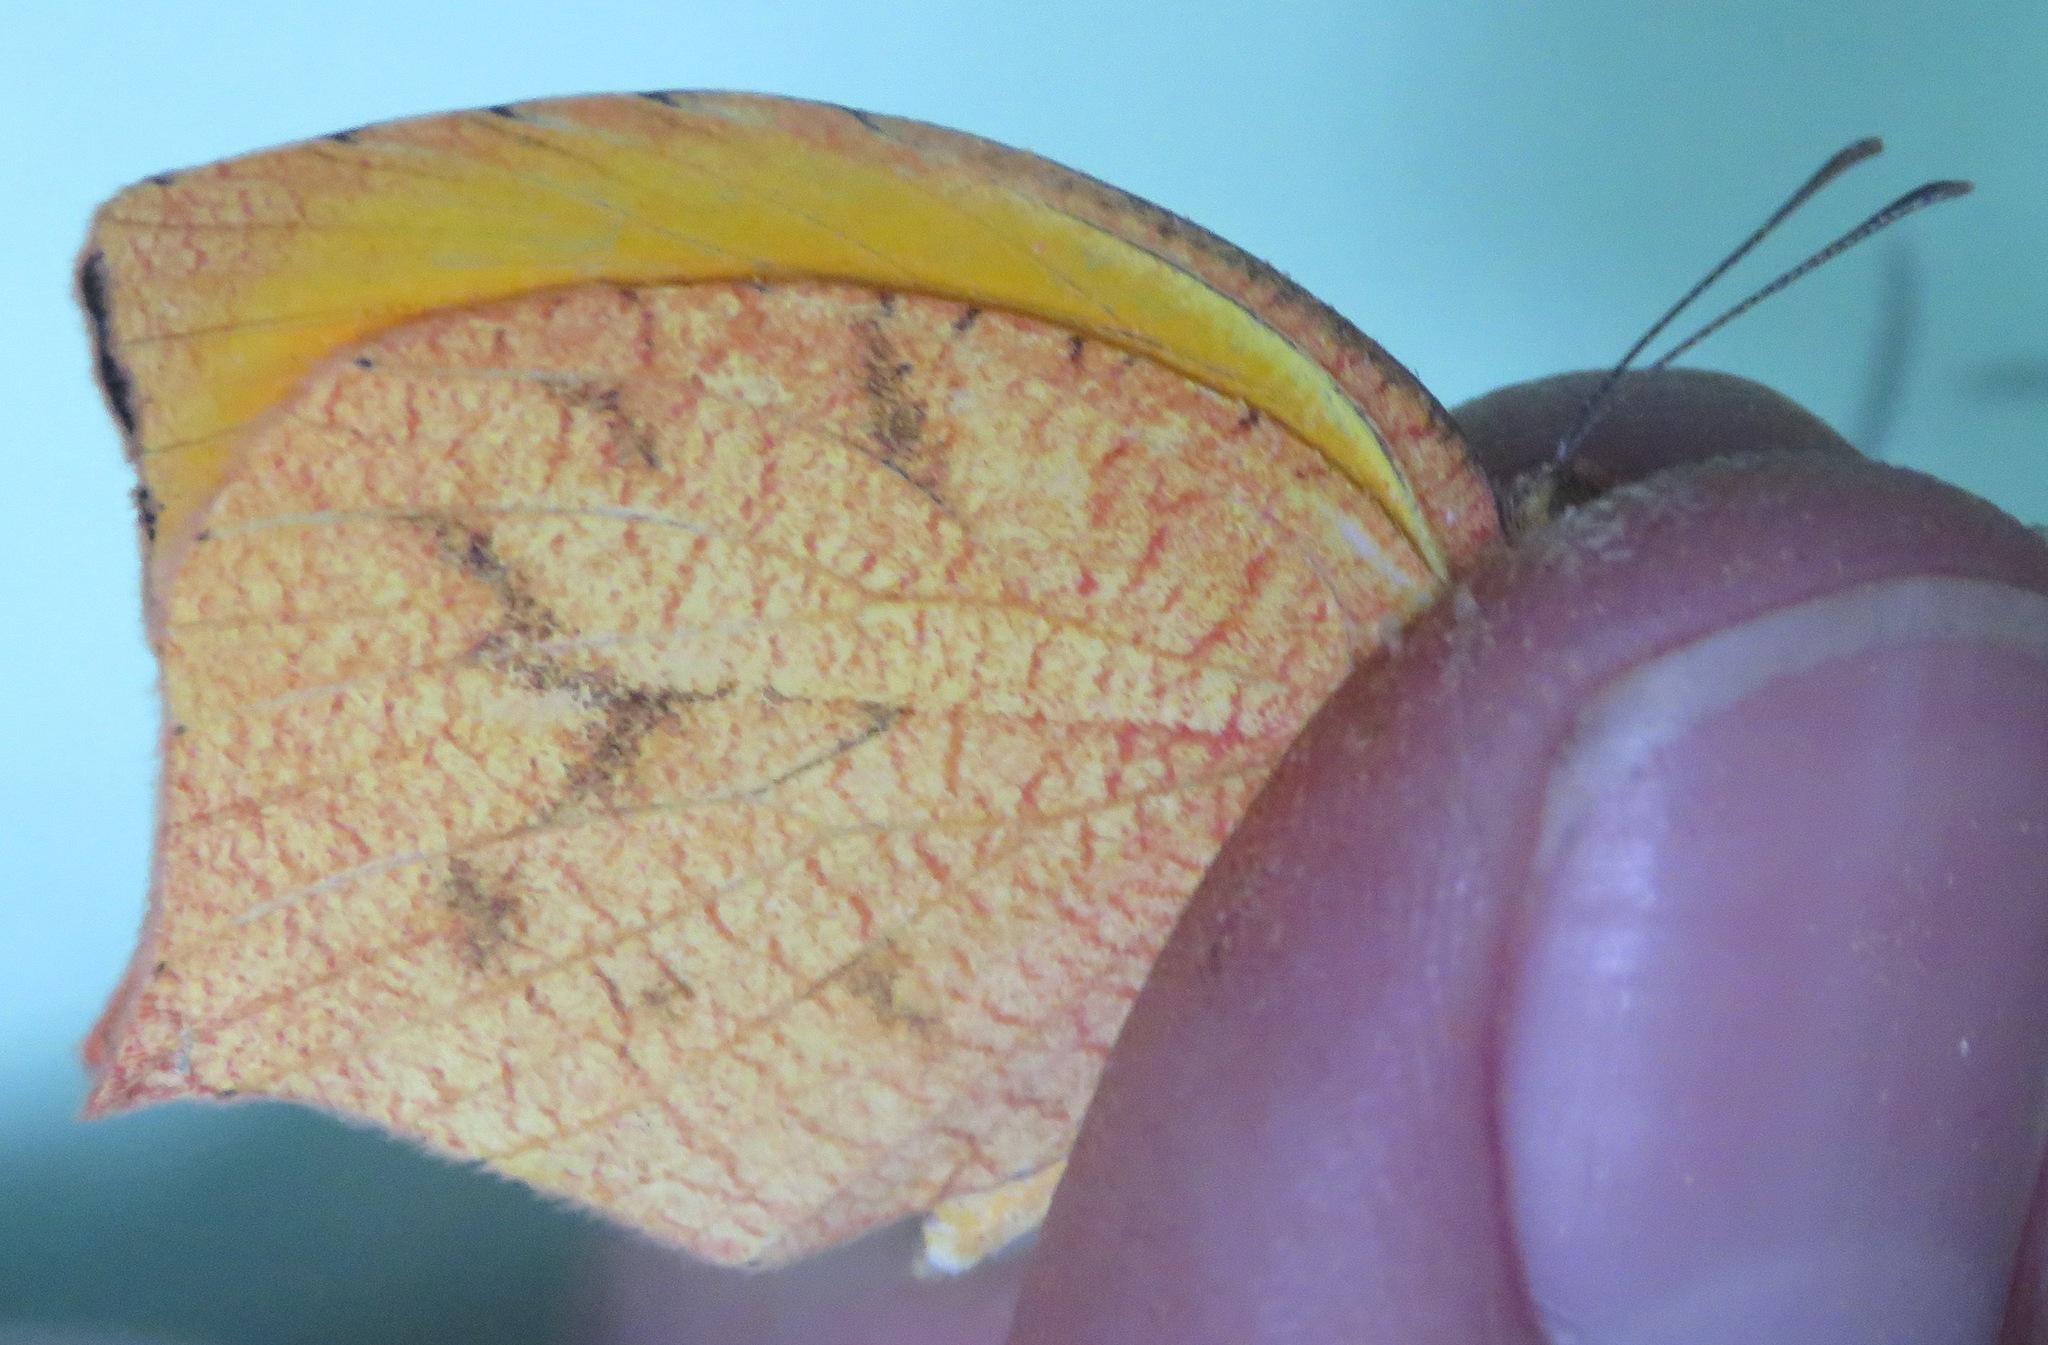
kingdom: Animalia
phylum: Arthropoda
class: Insecta
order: Lepidoptera
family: Pieridae
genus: Pyrisitia
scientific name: Pyrisitia proterpia
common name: Tailed orange
